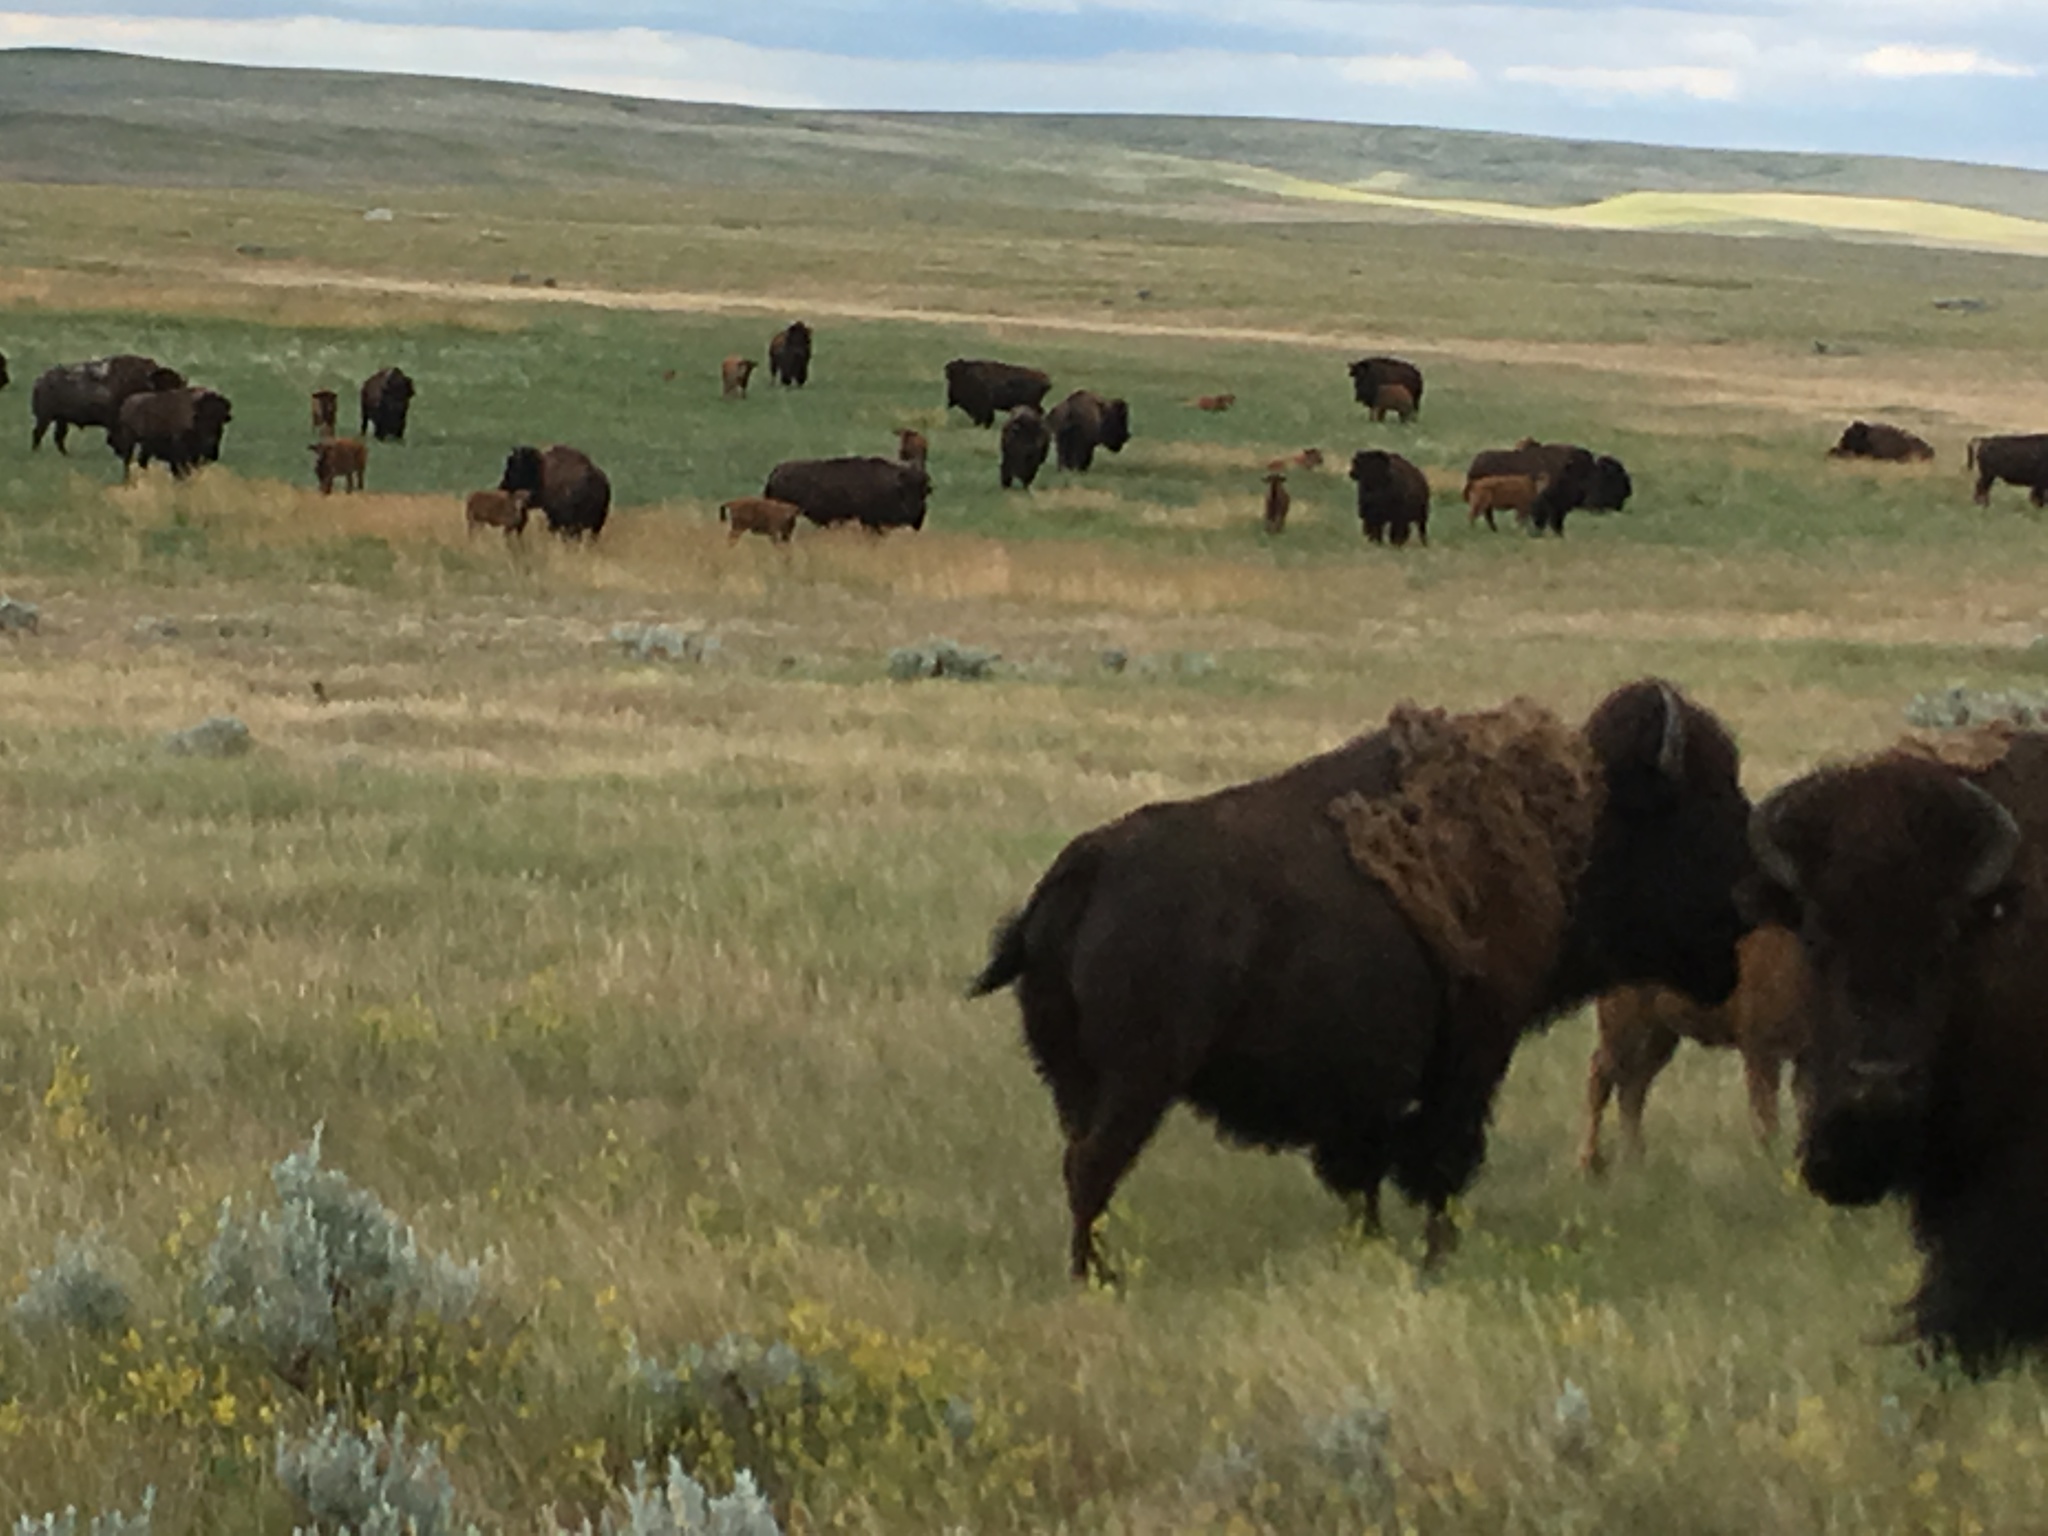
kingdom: Animalia
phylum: Chordata
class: Mammalia
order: Artiodactyla
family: Bovidae
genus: Bison
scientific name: Bison bison
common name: American bison
